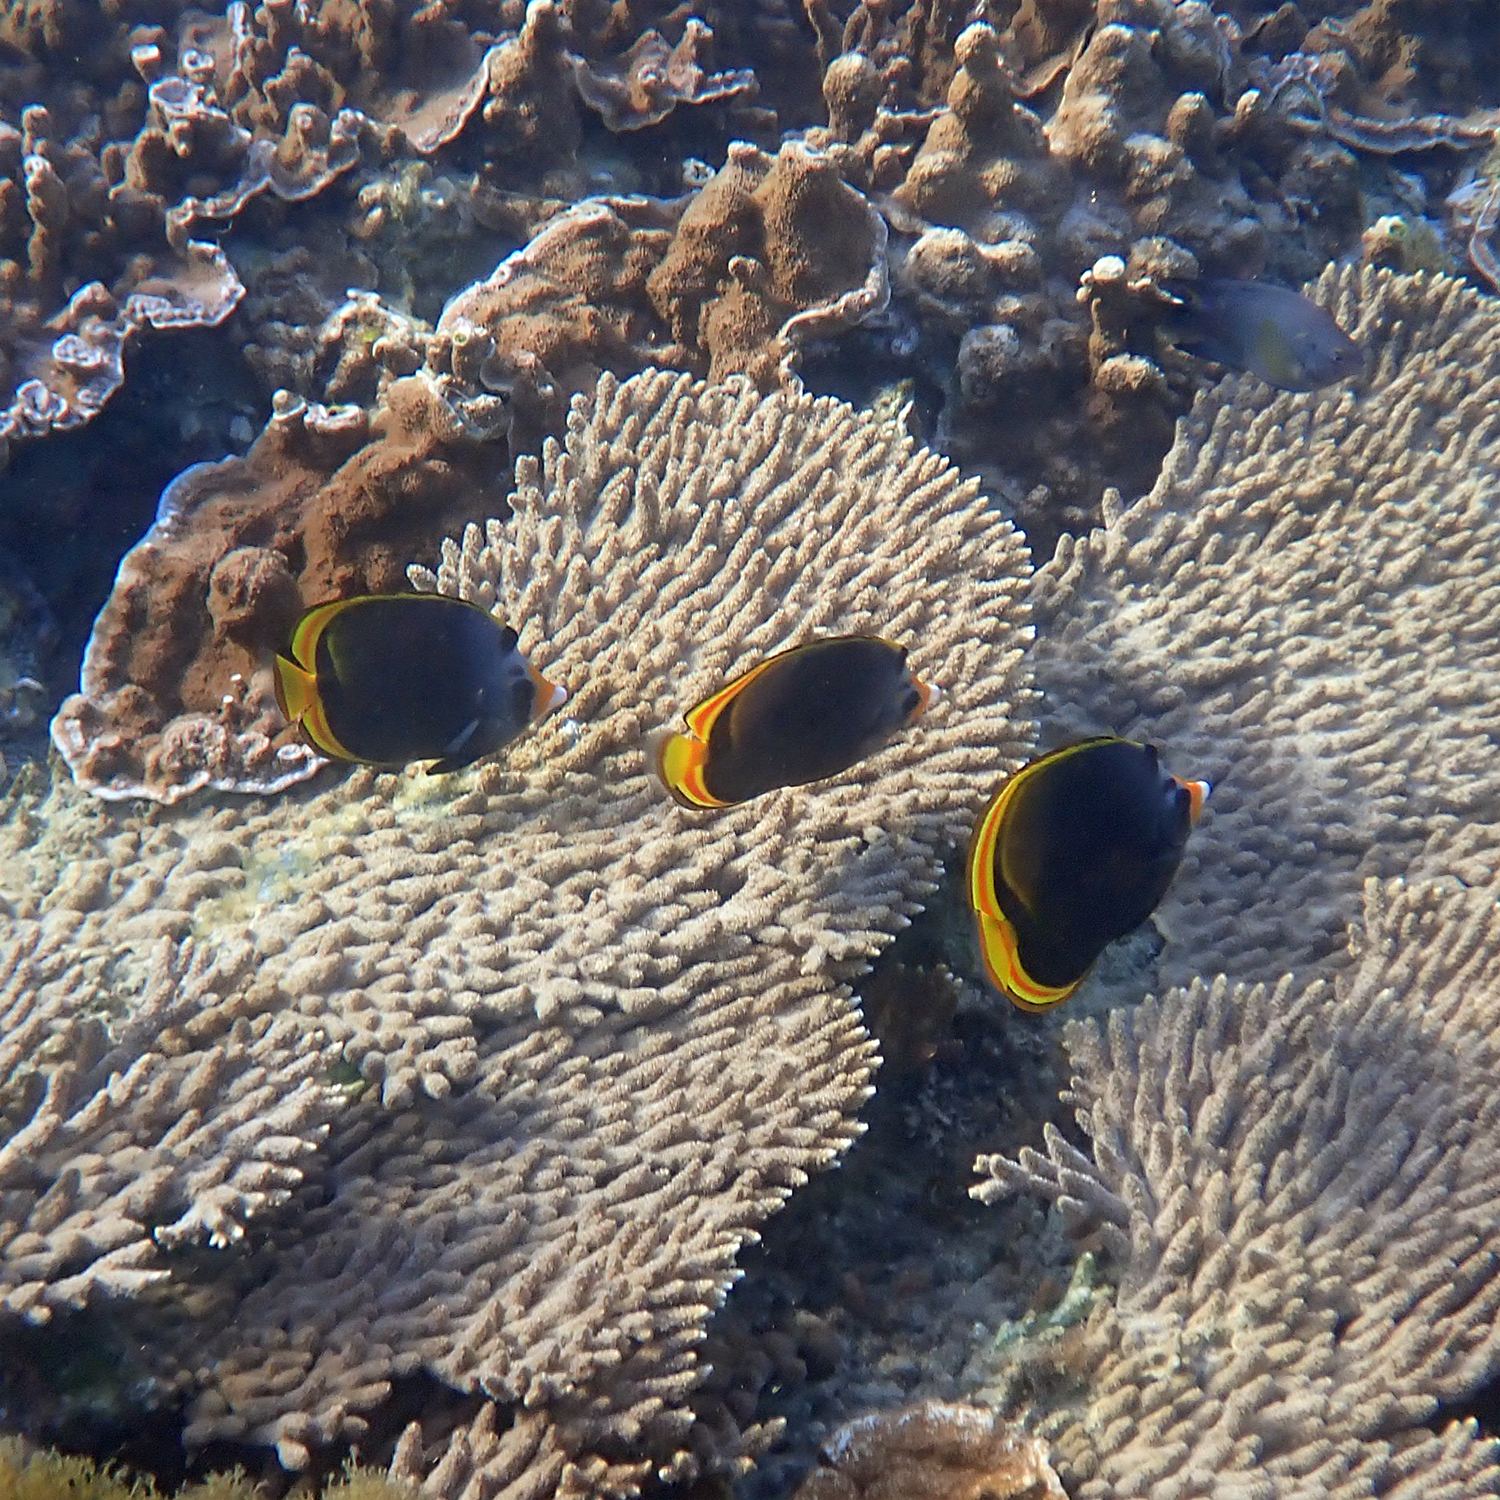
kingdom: Animalia
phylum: Chordata
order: Perciformes
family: Chaetodontidae
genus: Chaetodon
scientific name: Chaetodon flavirostris
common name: Black butterflyfish
